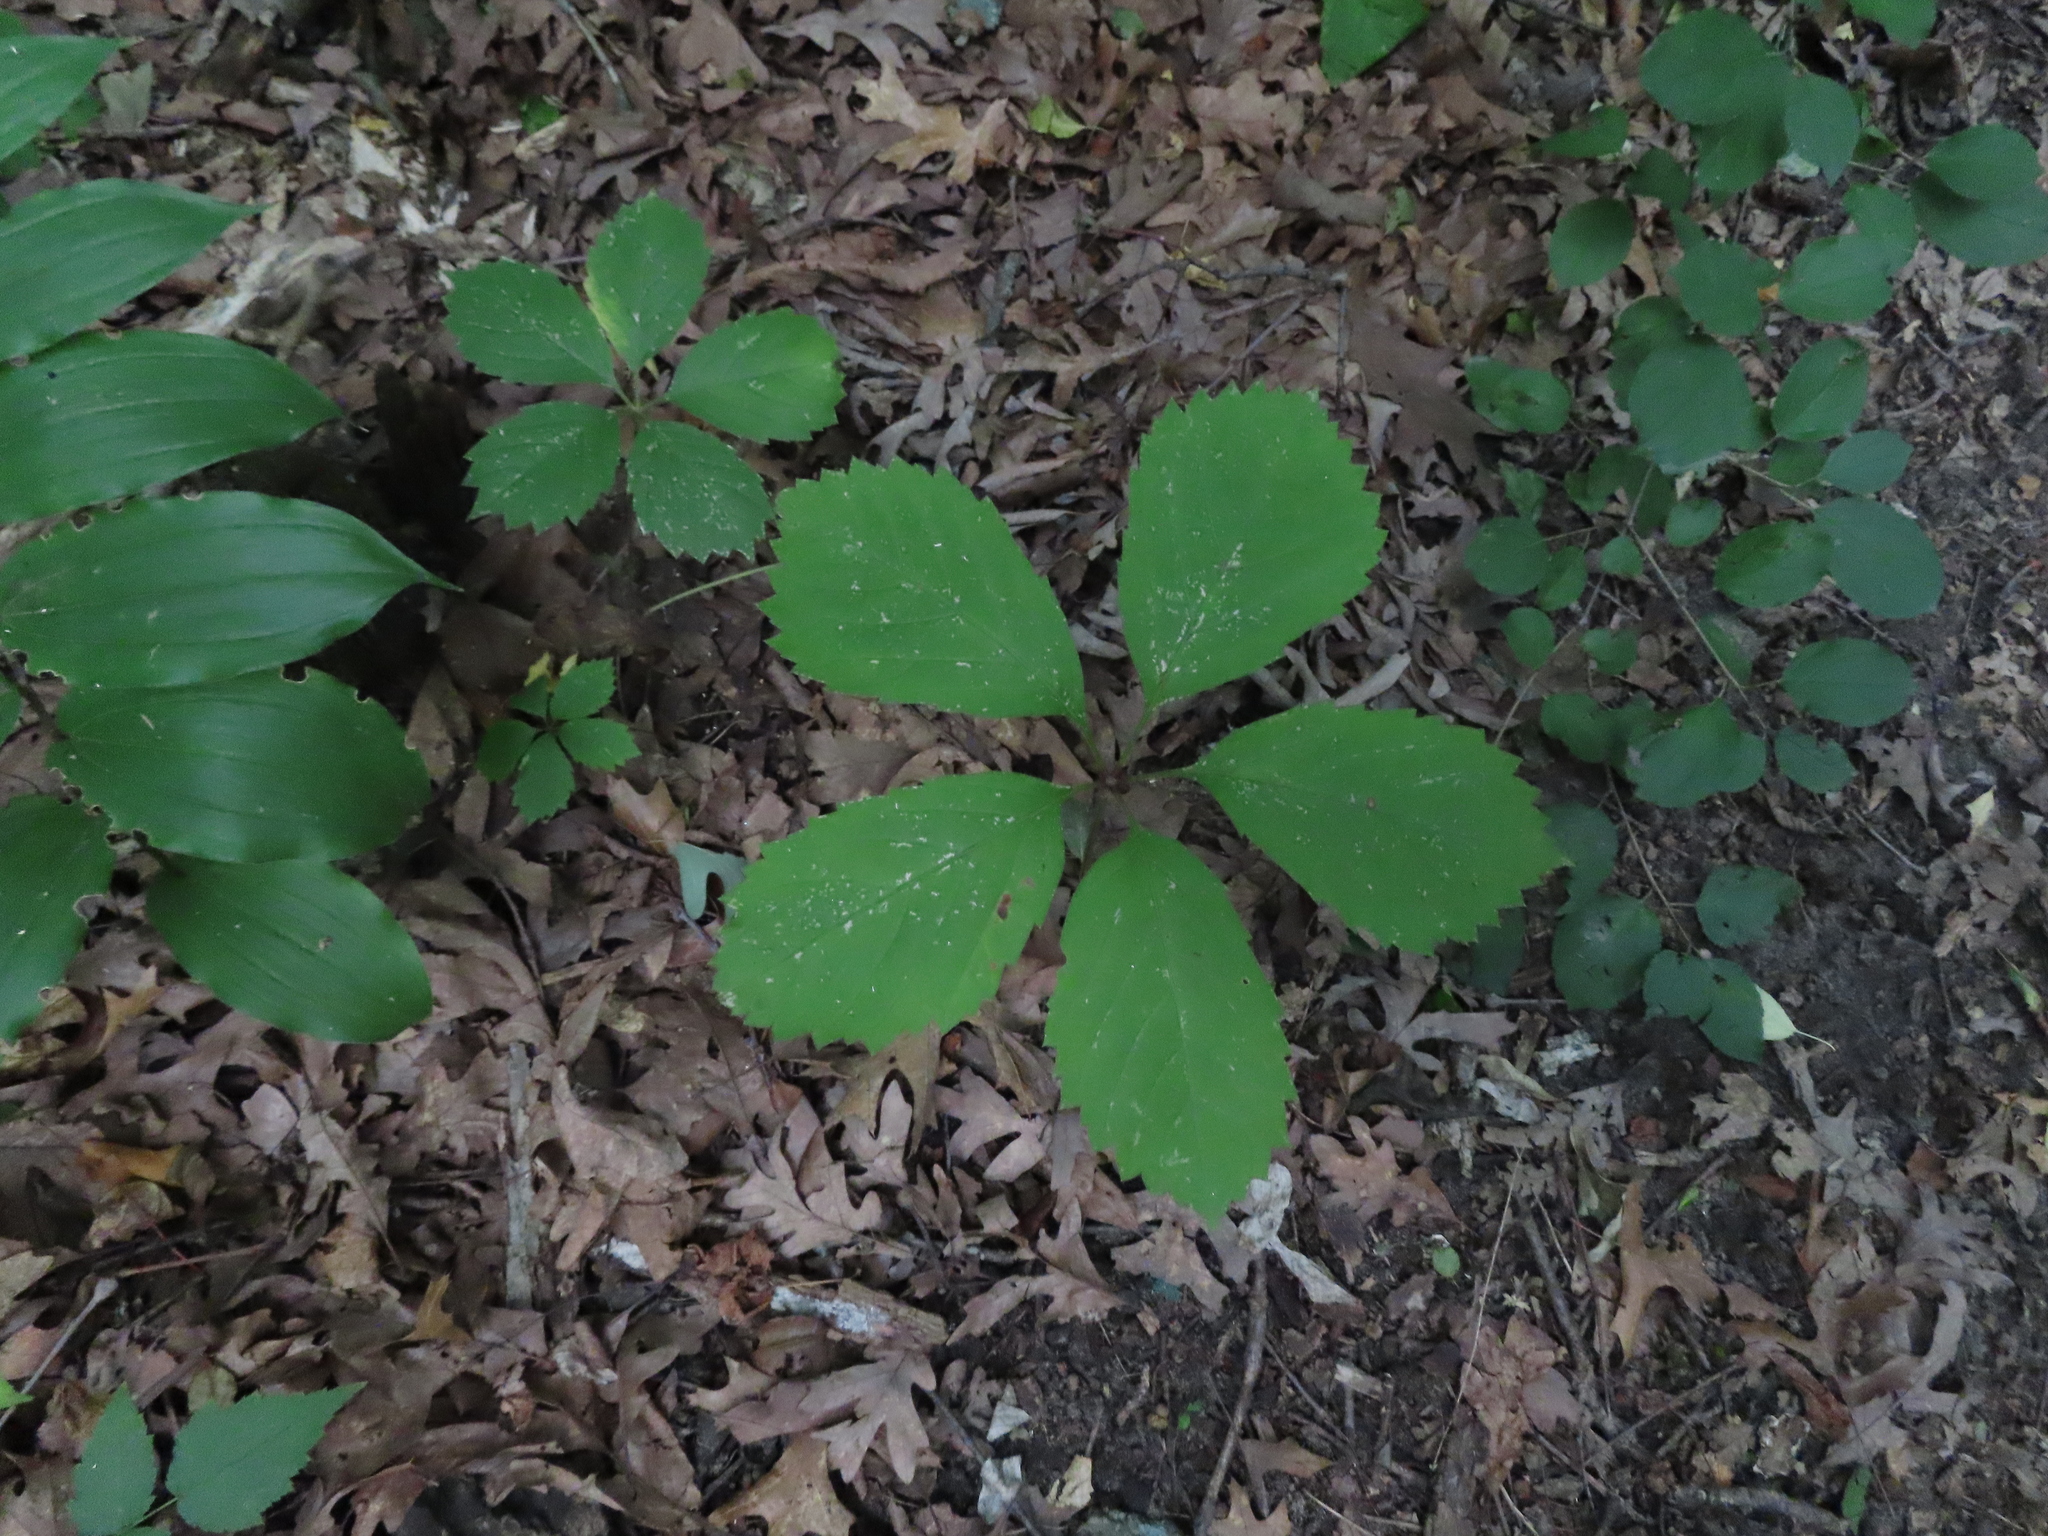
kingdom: Plantae
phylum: Tracheophyta
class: Magnoliopsida
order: Vitales
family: Vitaceae
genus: Parthenocissus
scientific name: Parthenocissus inserta
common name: False virginia-creeper
